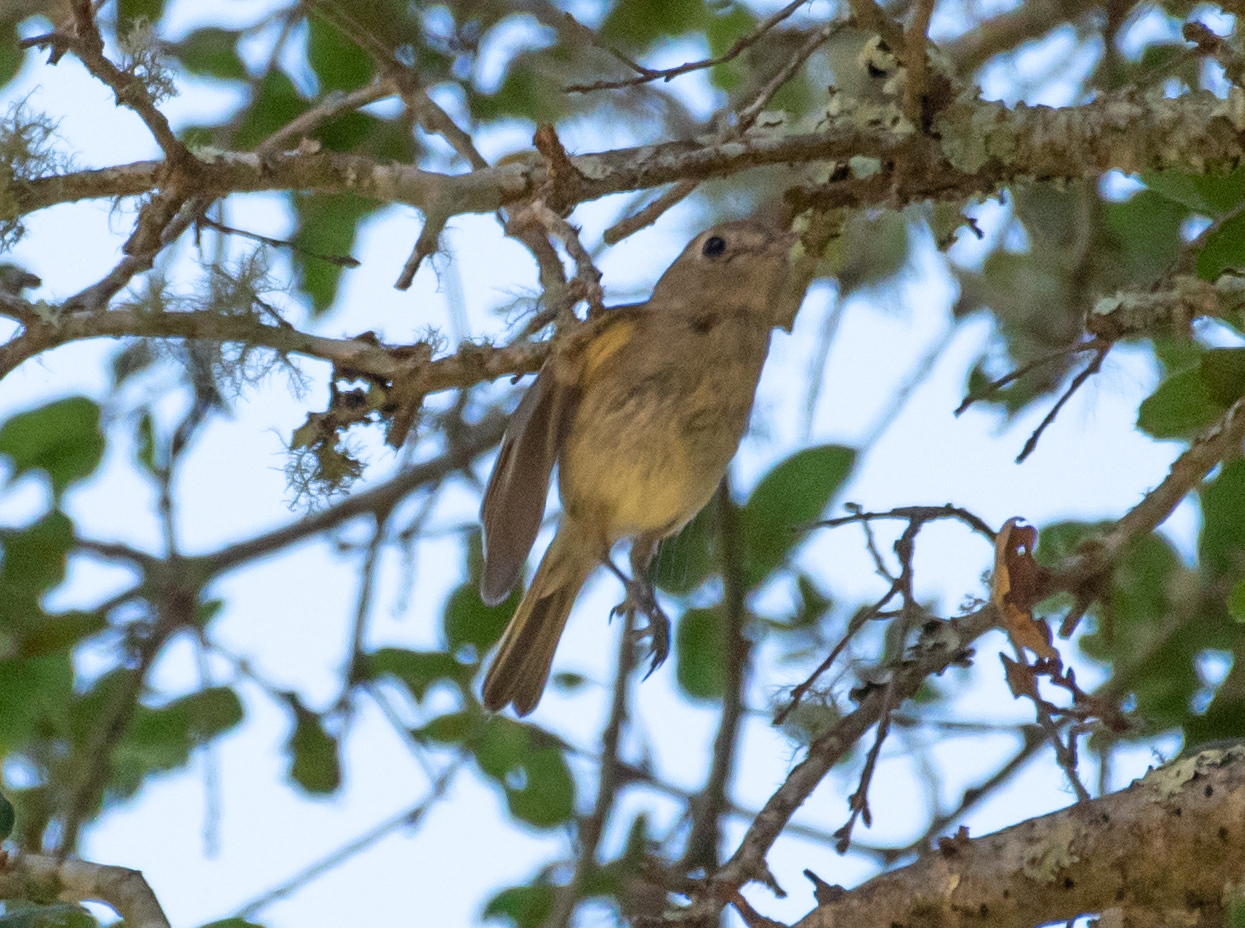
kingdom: Animalia
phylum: Chordata
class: Aves
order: Passeriformes
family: Vireonidae
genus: Vireo
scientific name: Vireo huttoni
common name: Hutton's vireo
